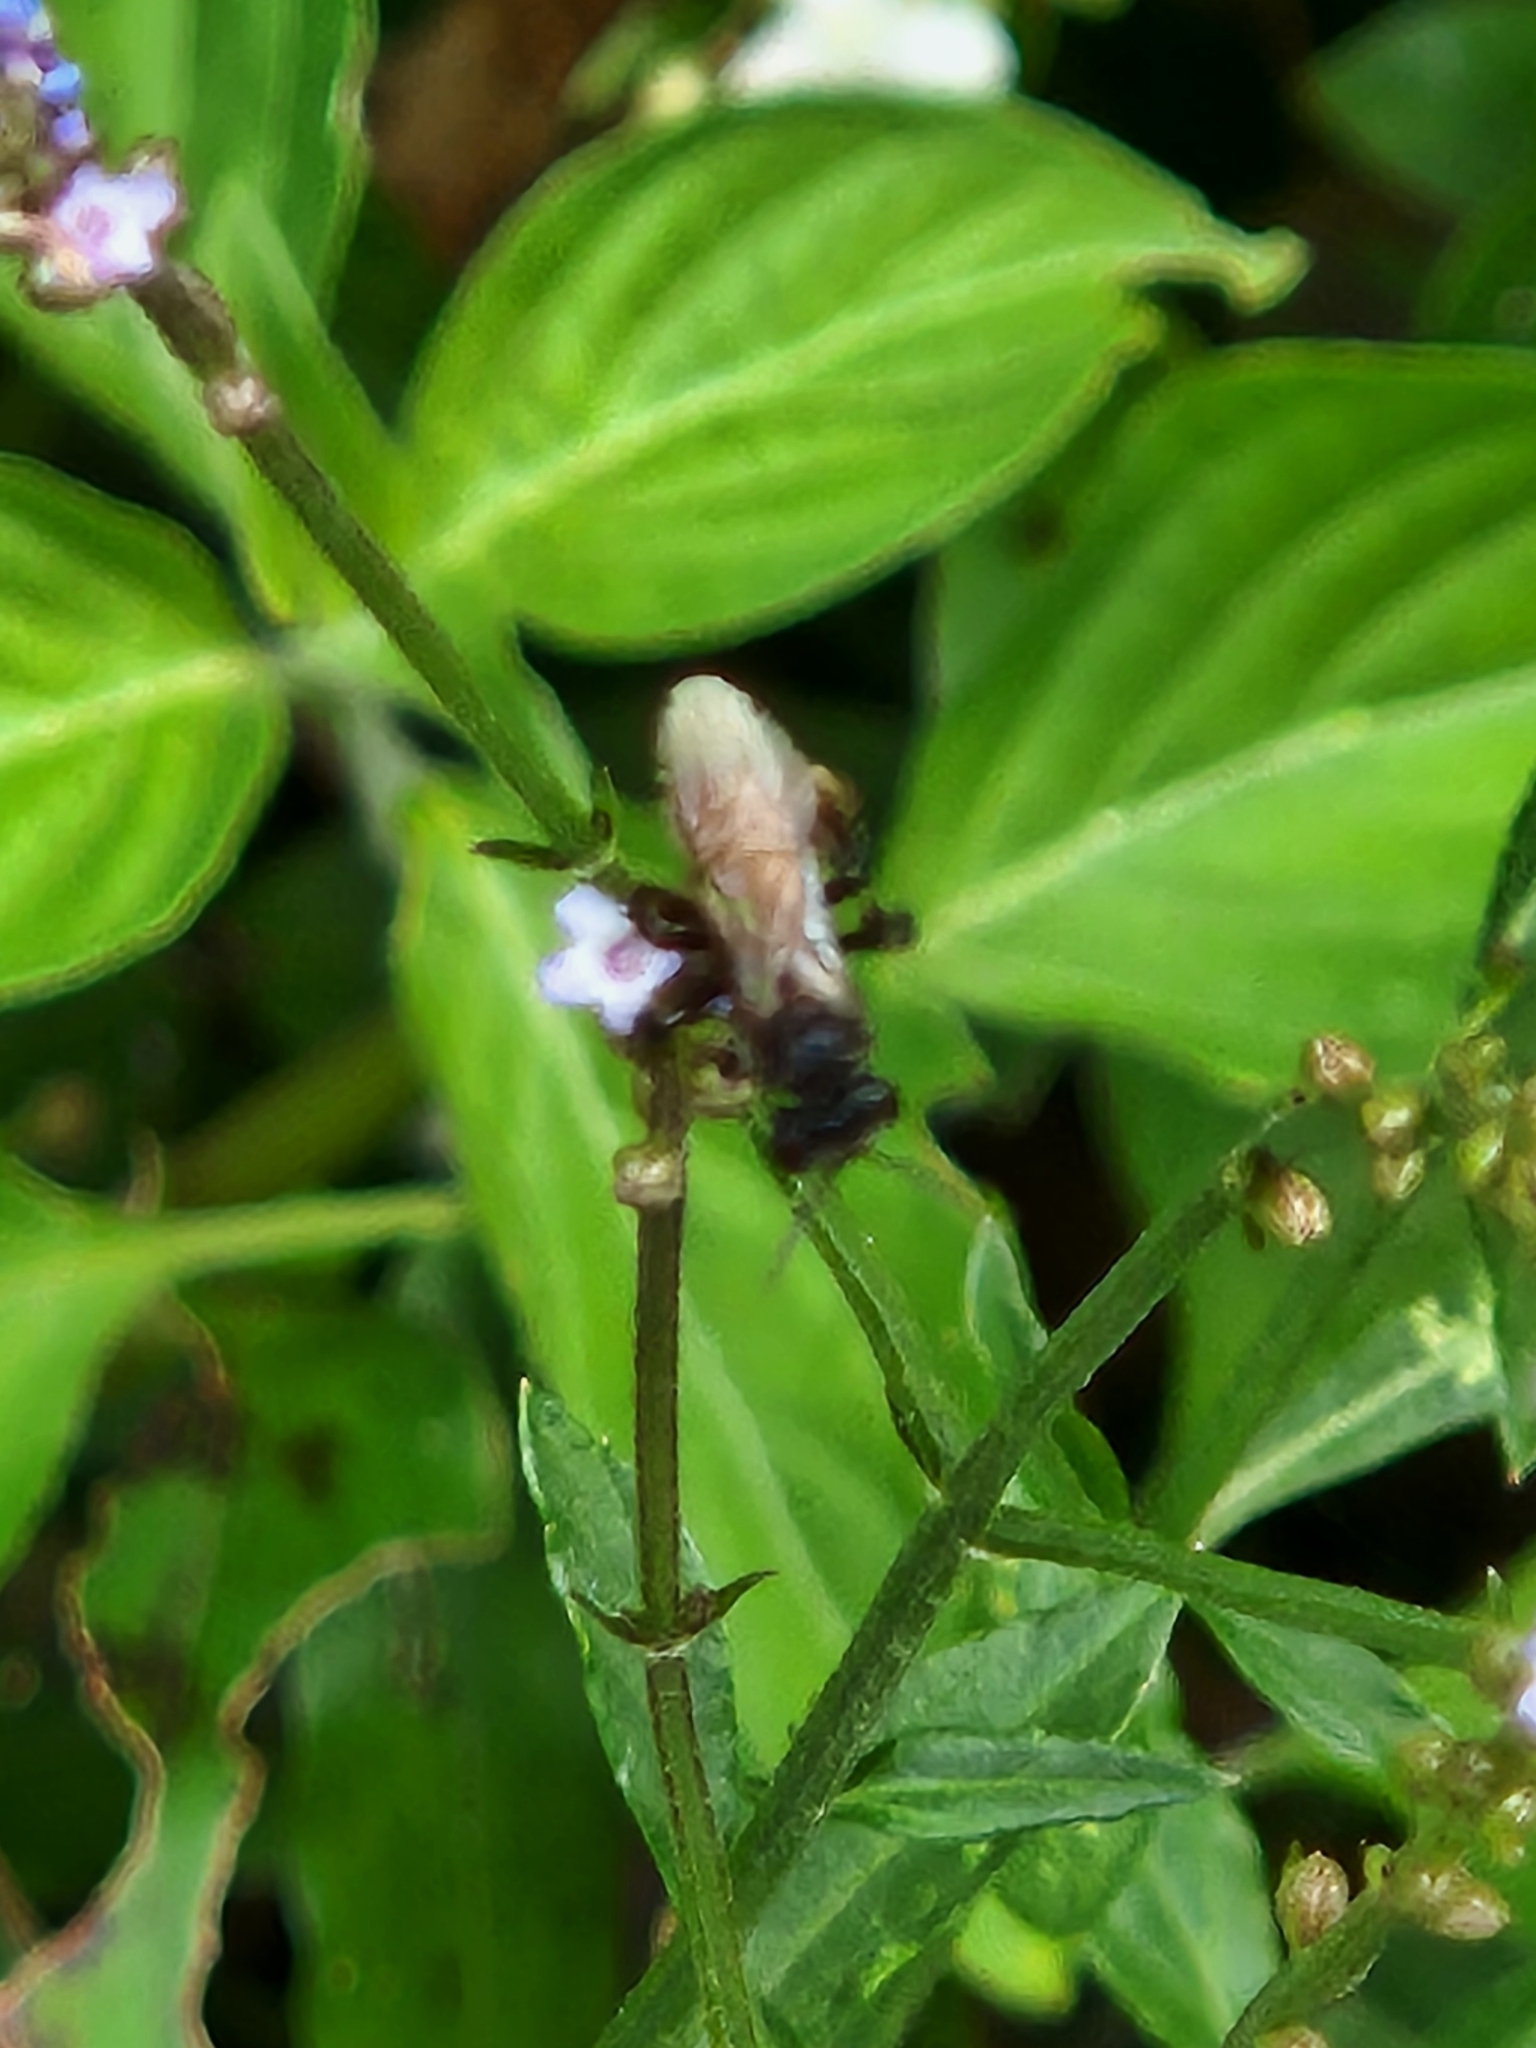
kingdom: Animalia
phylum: Arthropoda
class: Insecta
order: Hymenoptera
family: Apidae
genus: Trigona
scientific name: Trigona fulviventris
